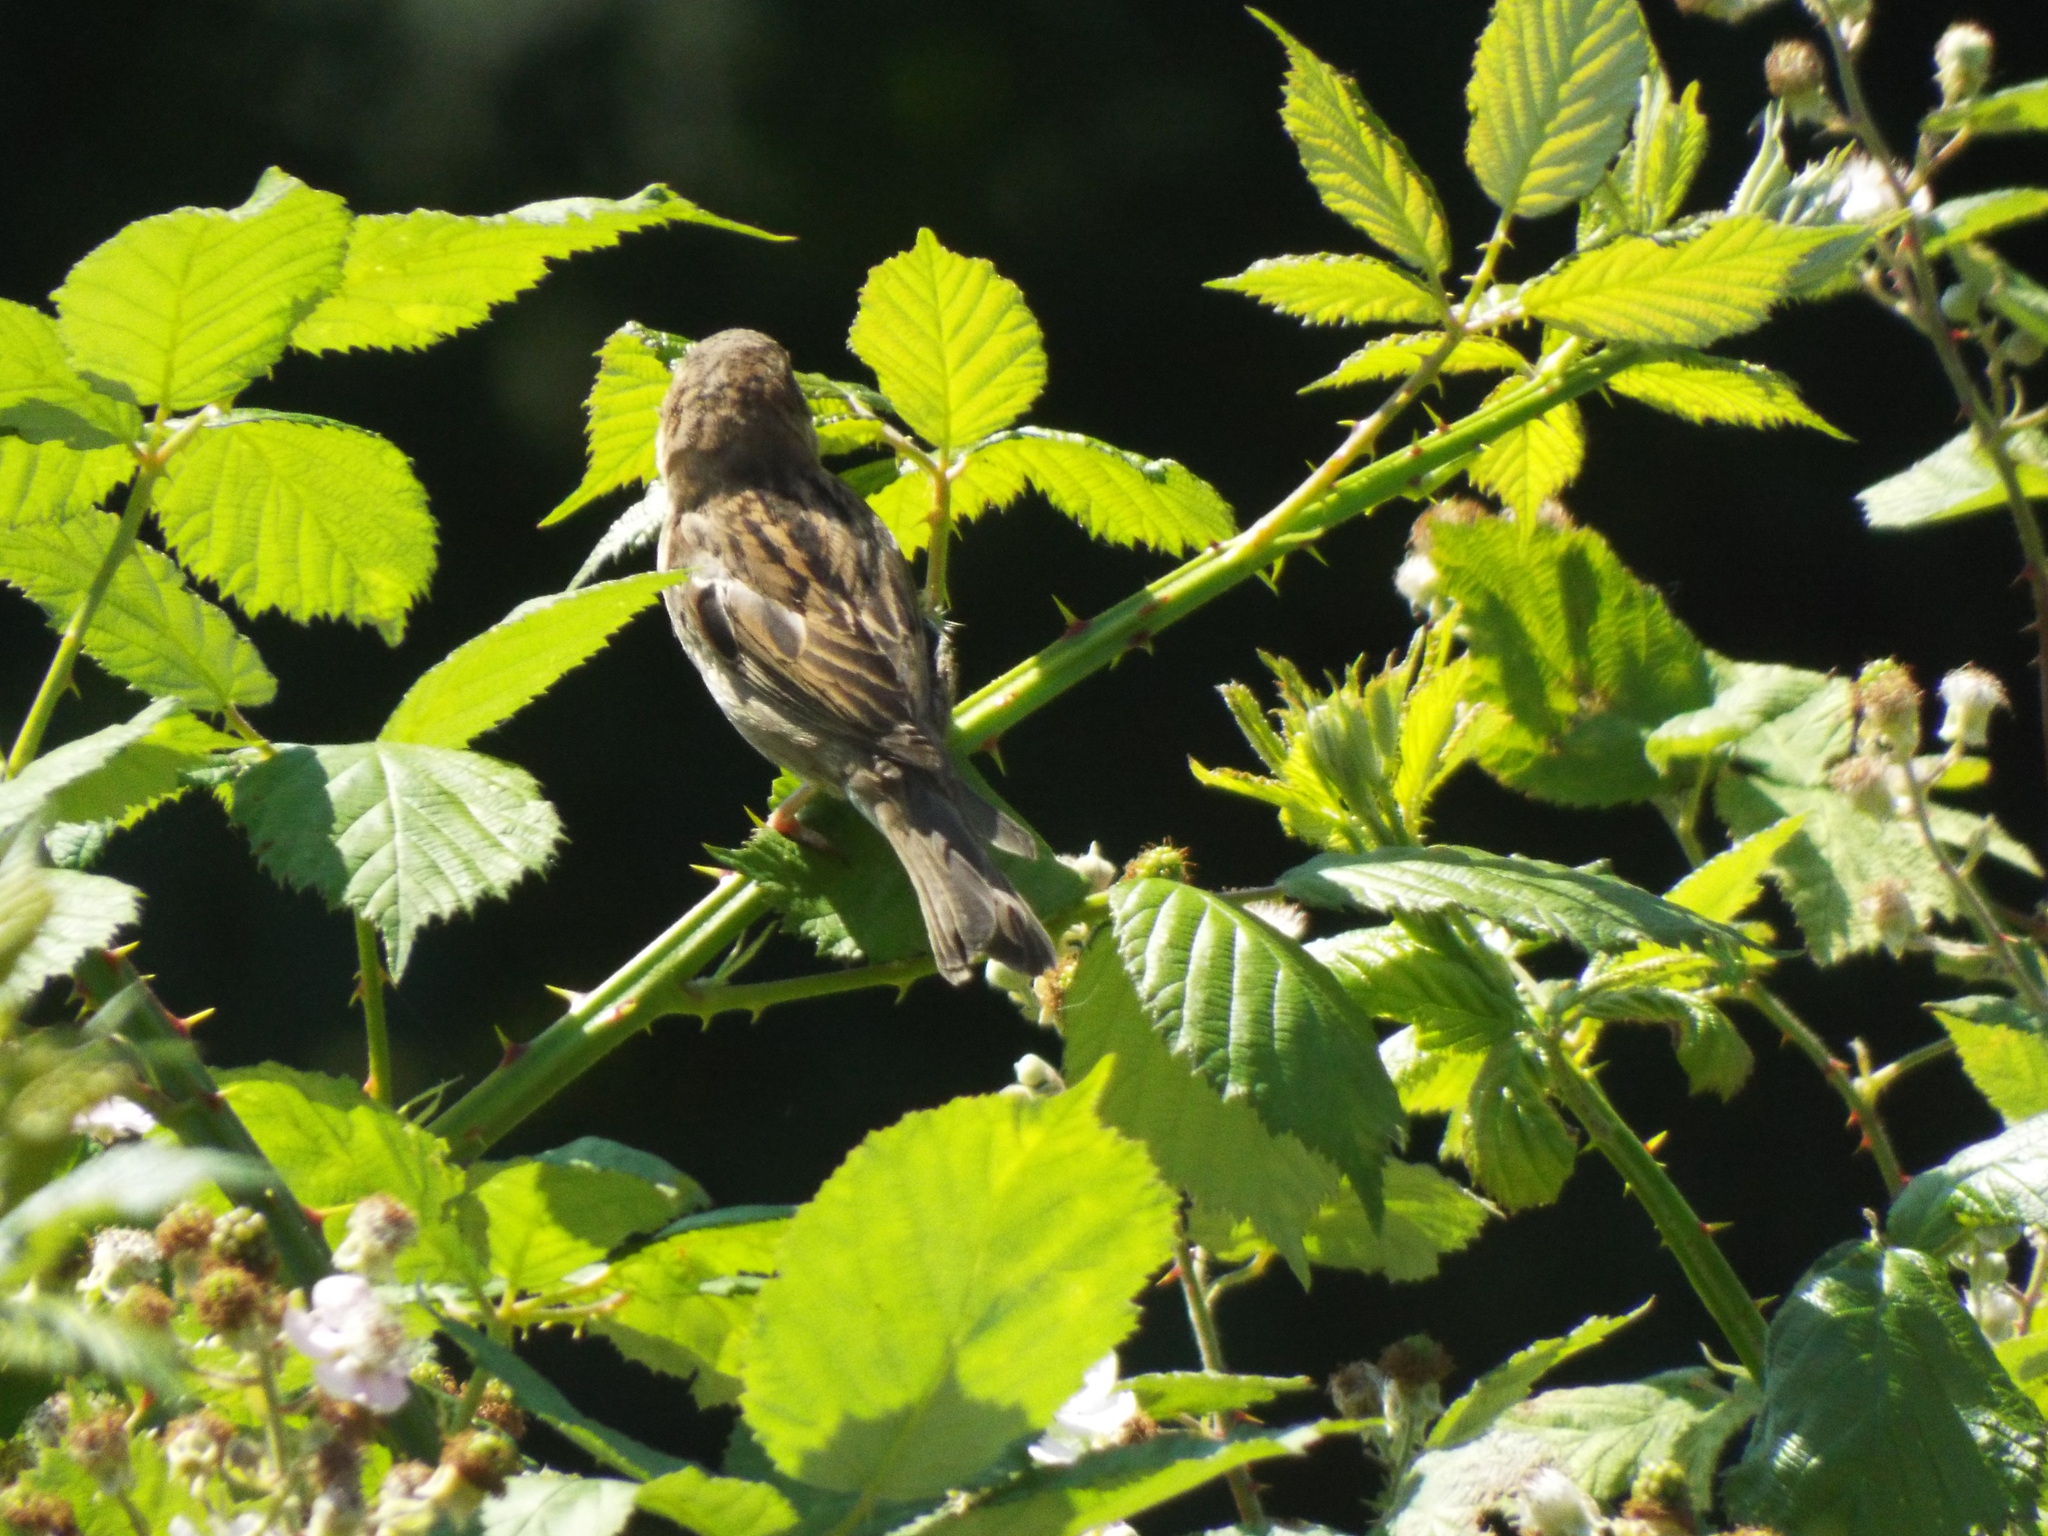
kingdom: Animalia
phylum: Chordata
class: Aves
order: Passeriformes
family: Passeridae
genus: Passer
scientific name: Passer domesticus
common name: House sparrow
